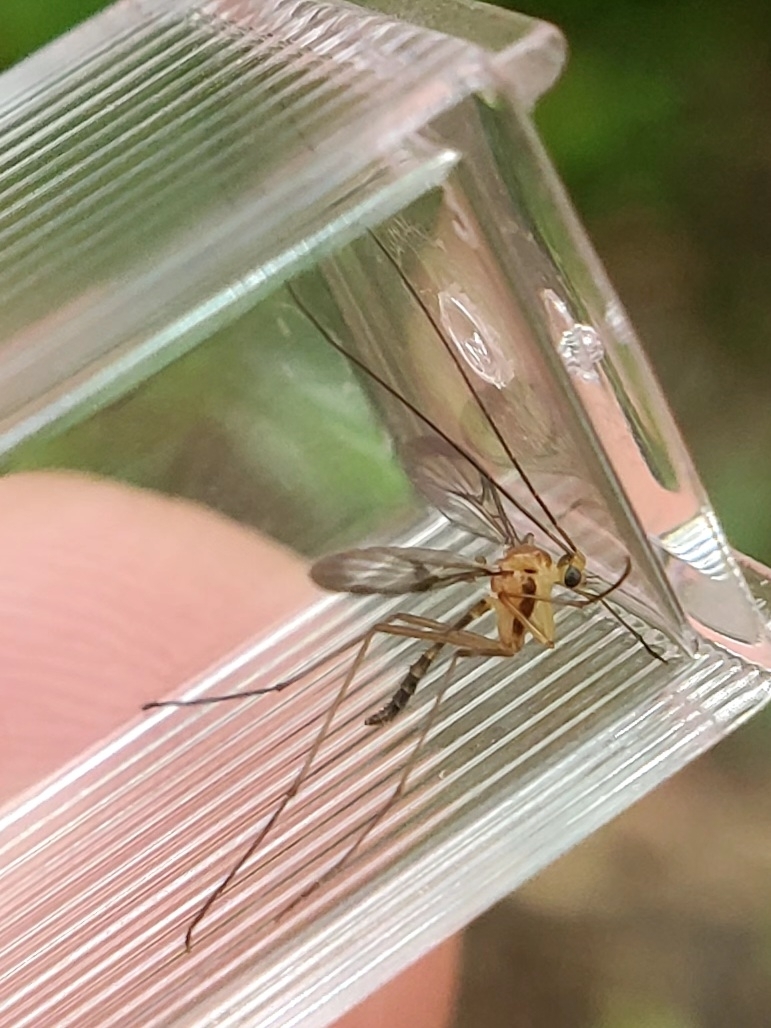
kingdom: Animalia
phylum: Arthropoda
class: Insecta
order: Diptera
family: Keroplatidae
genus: Macrocera
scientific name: Macrocera clara
